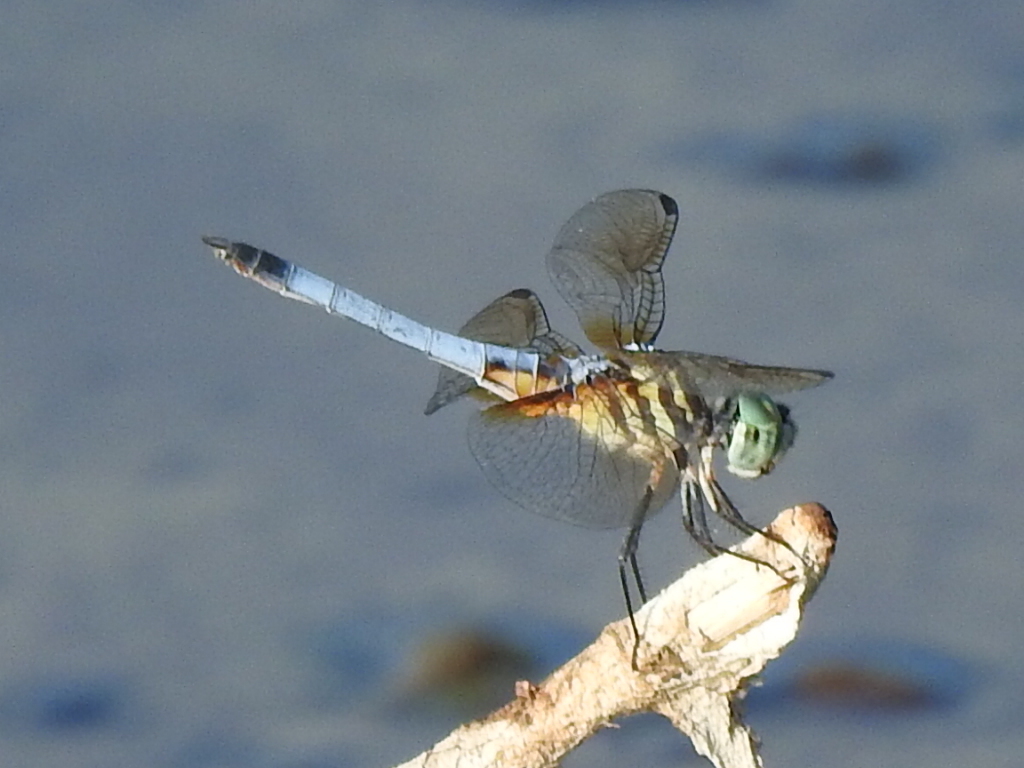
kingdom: Animalia
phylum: Arthropoda
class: Insecta
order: Odonata
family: Libellulidae
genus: Pachydiplax
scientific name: Pachydiplax longipennis
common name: Blue dasher
